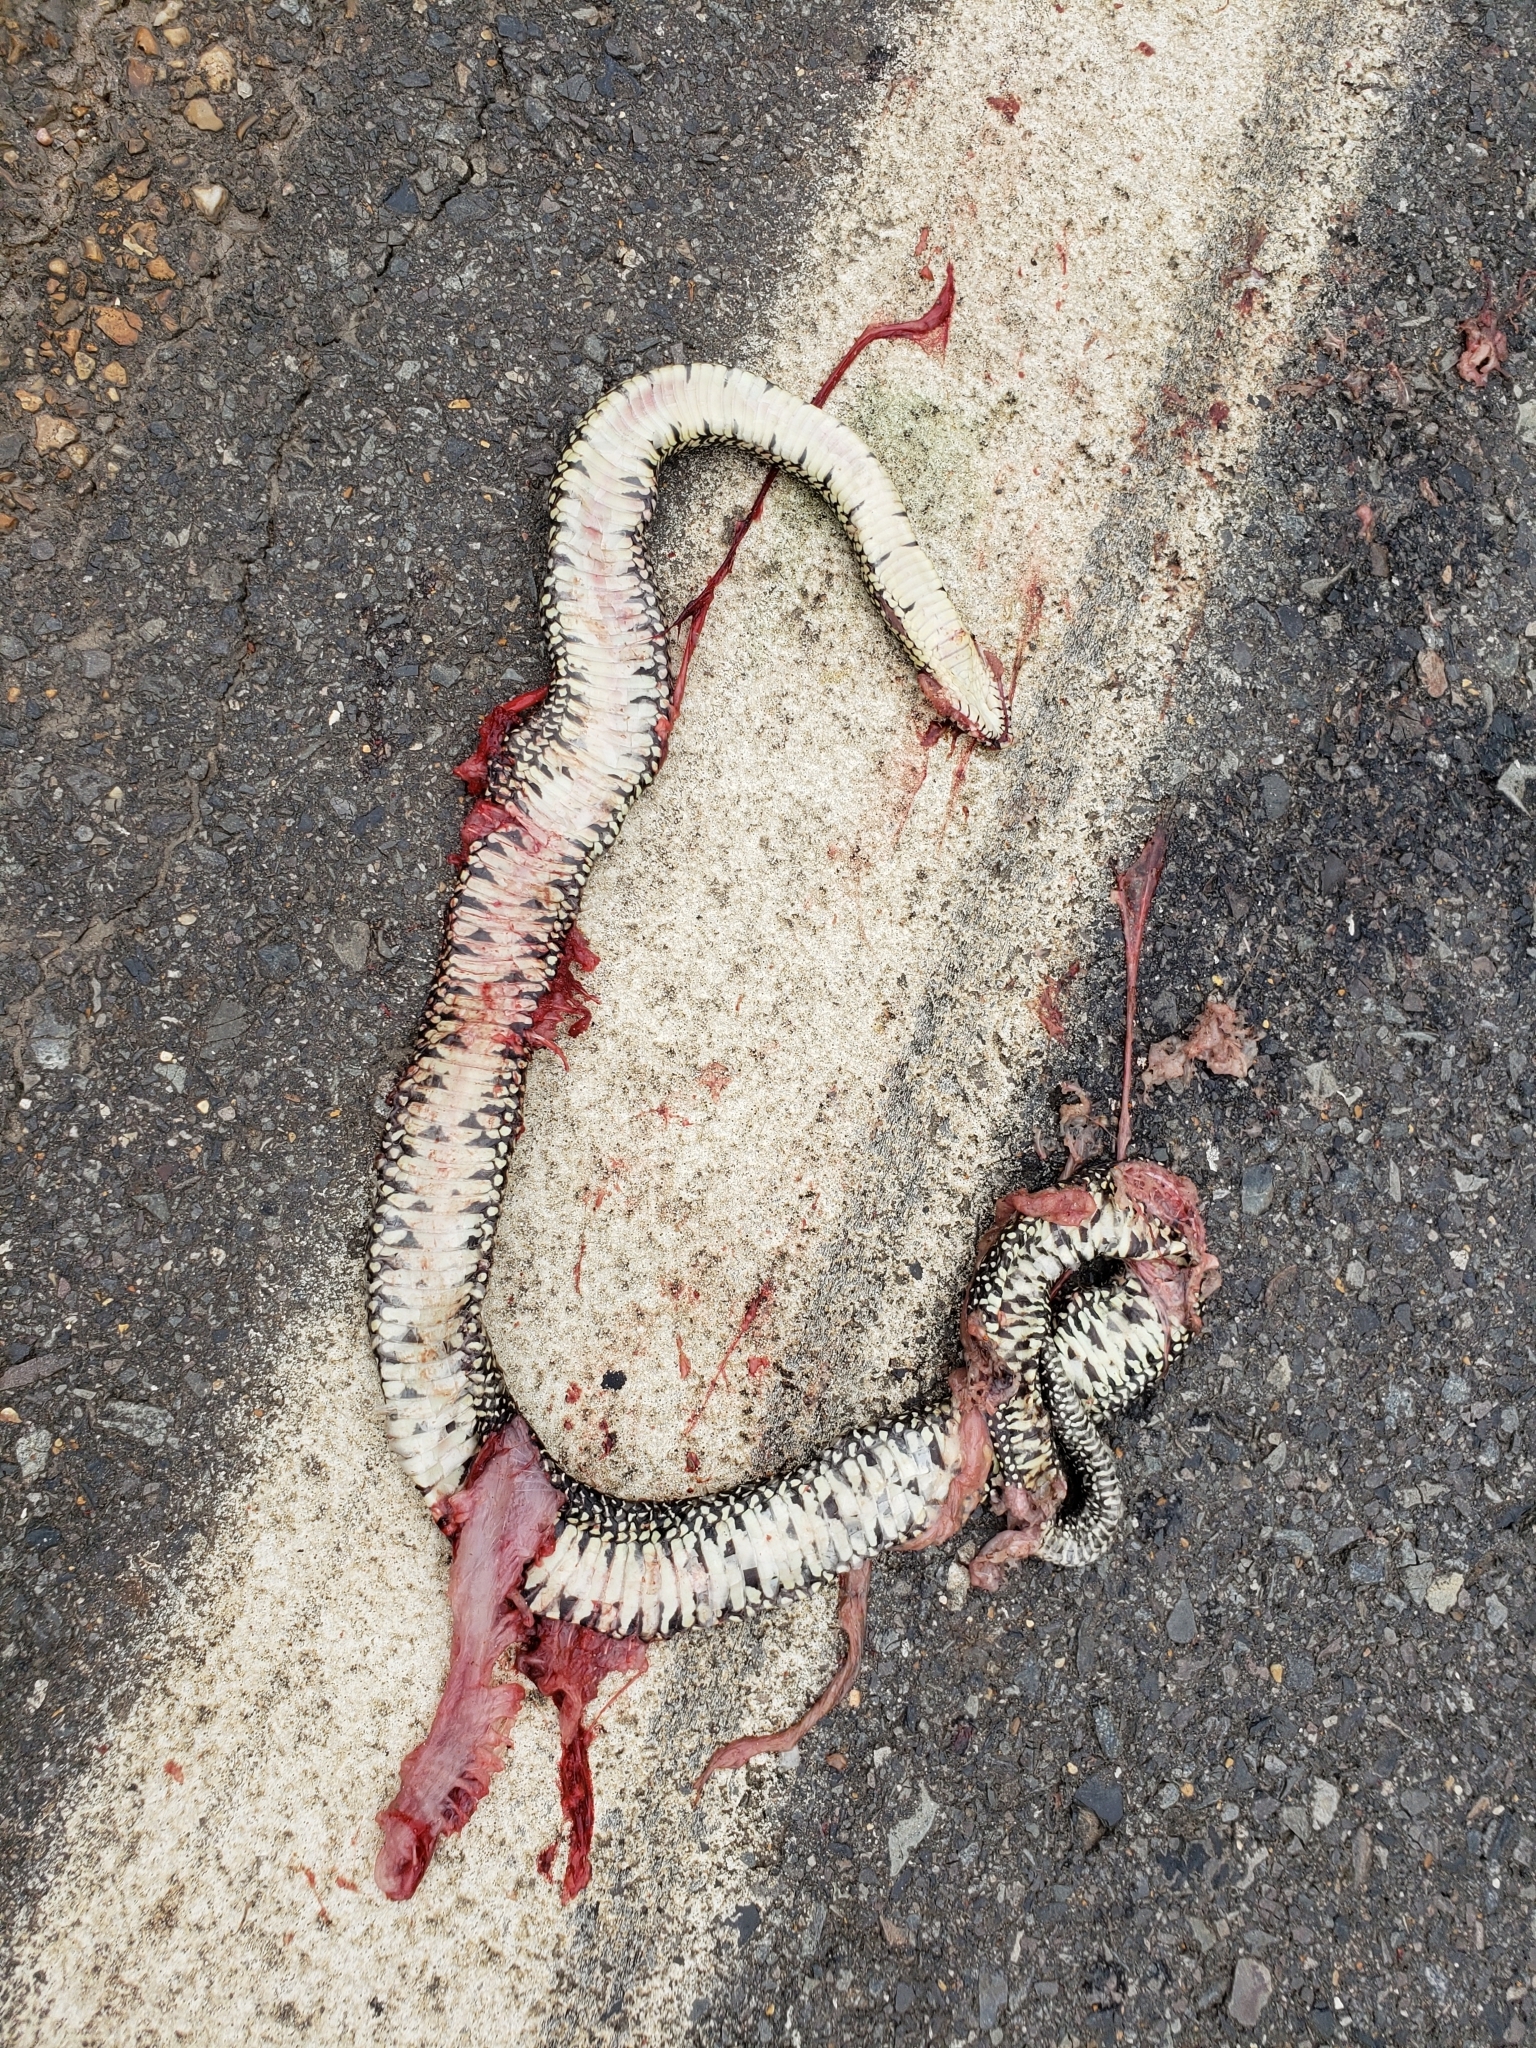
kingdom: Animalia
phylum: Chordata
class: Squamata
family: Colubridae
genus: Lampropeltis
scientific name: Lampropeltis holbrooki
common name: Speckled kingsnake
